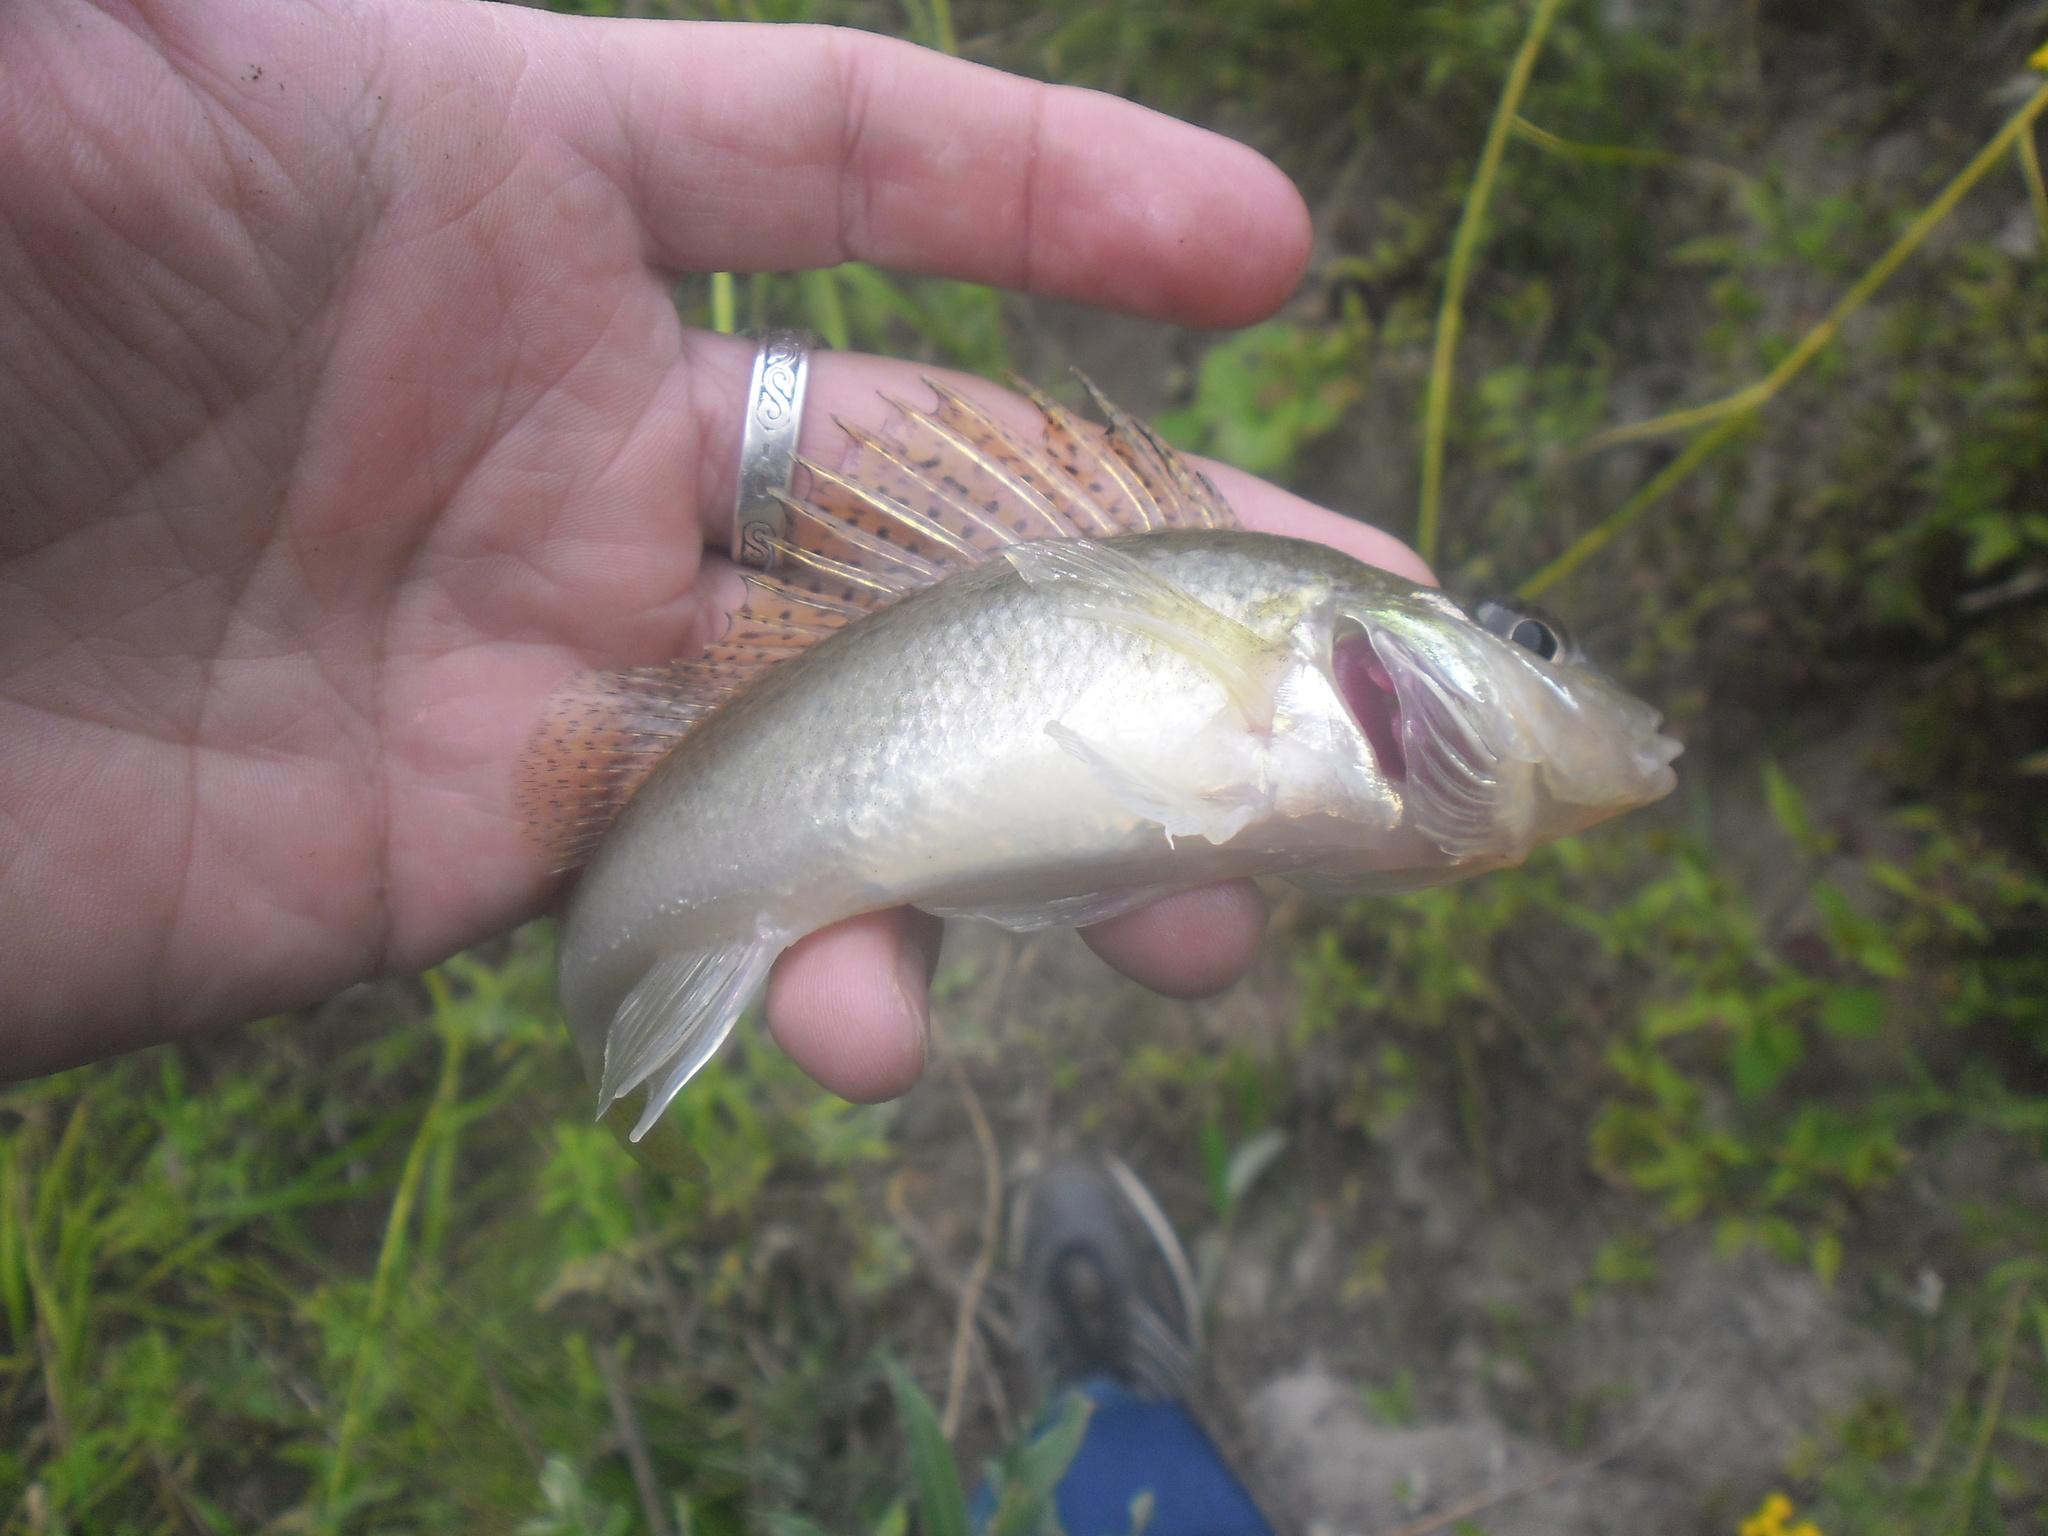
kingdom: Animalia
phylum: Chordata
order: Perciformes
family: Percidae
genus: Gymnocephalus
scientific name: Gymnocephalus cernua
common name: Ruffe
